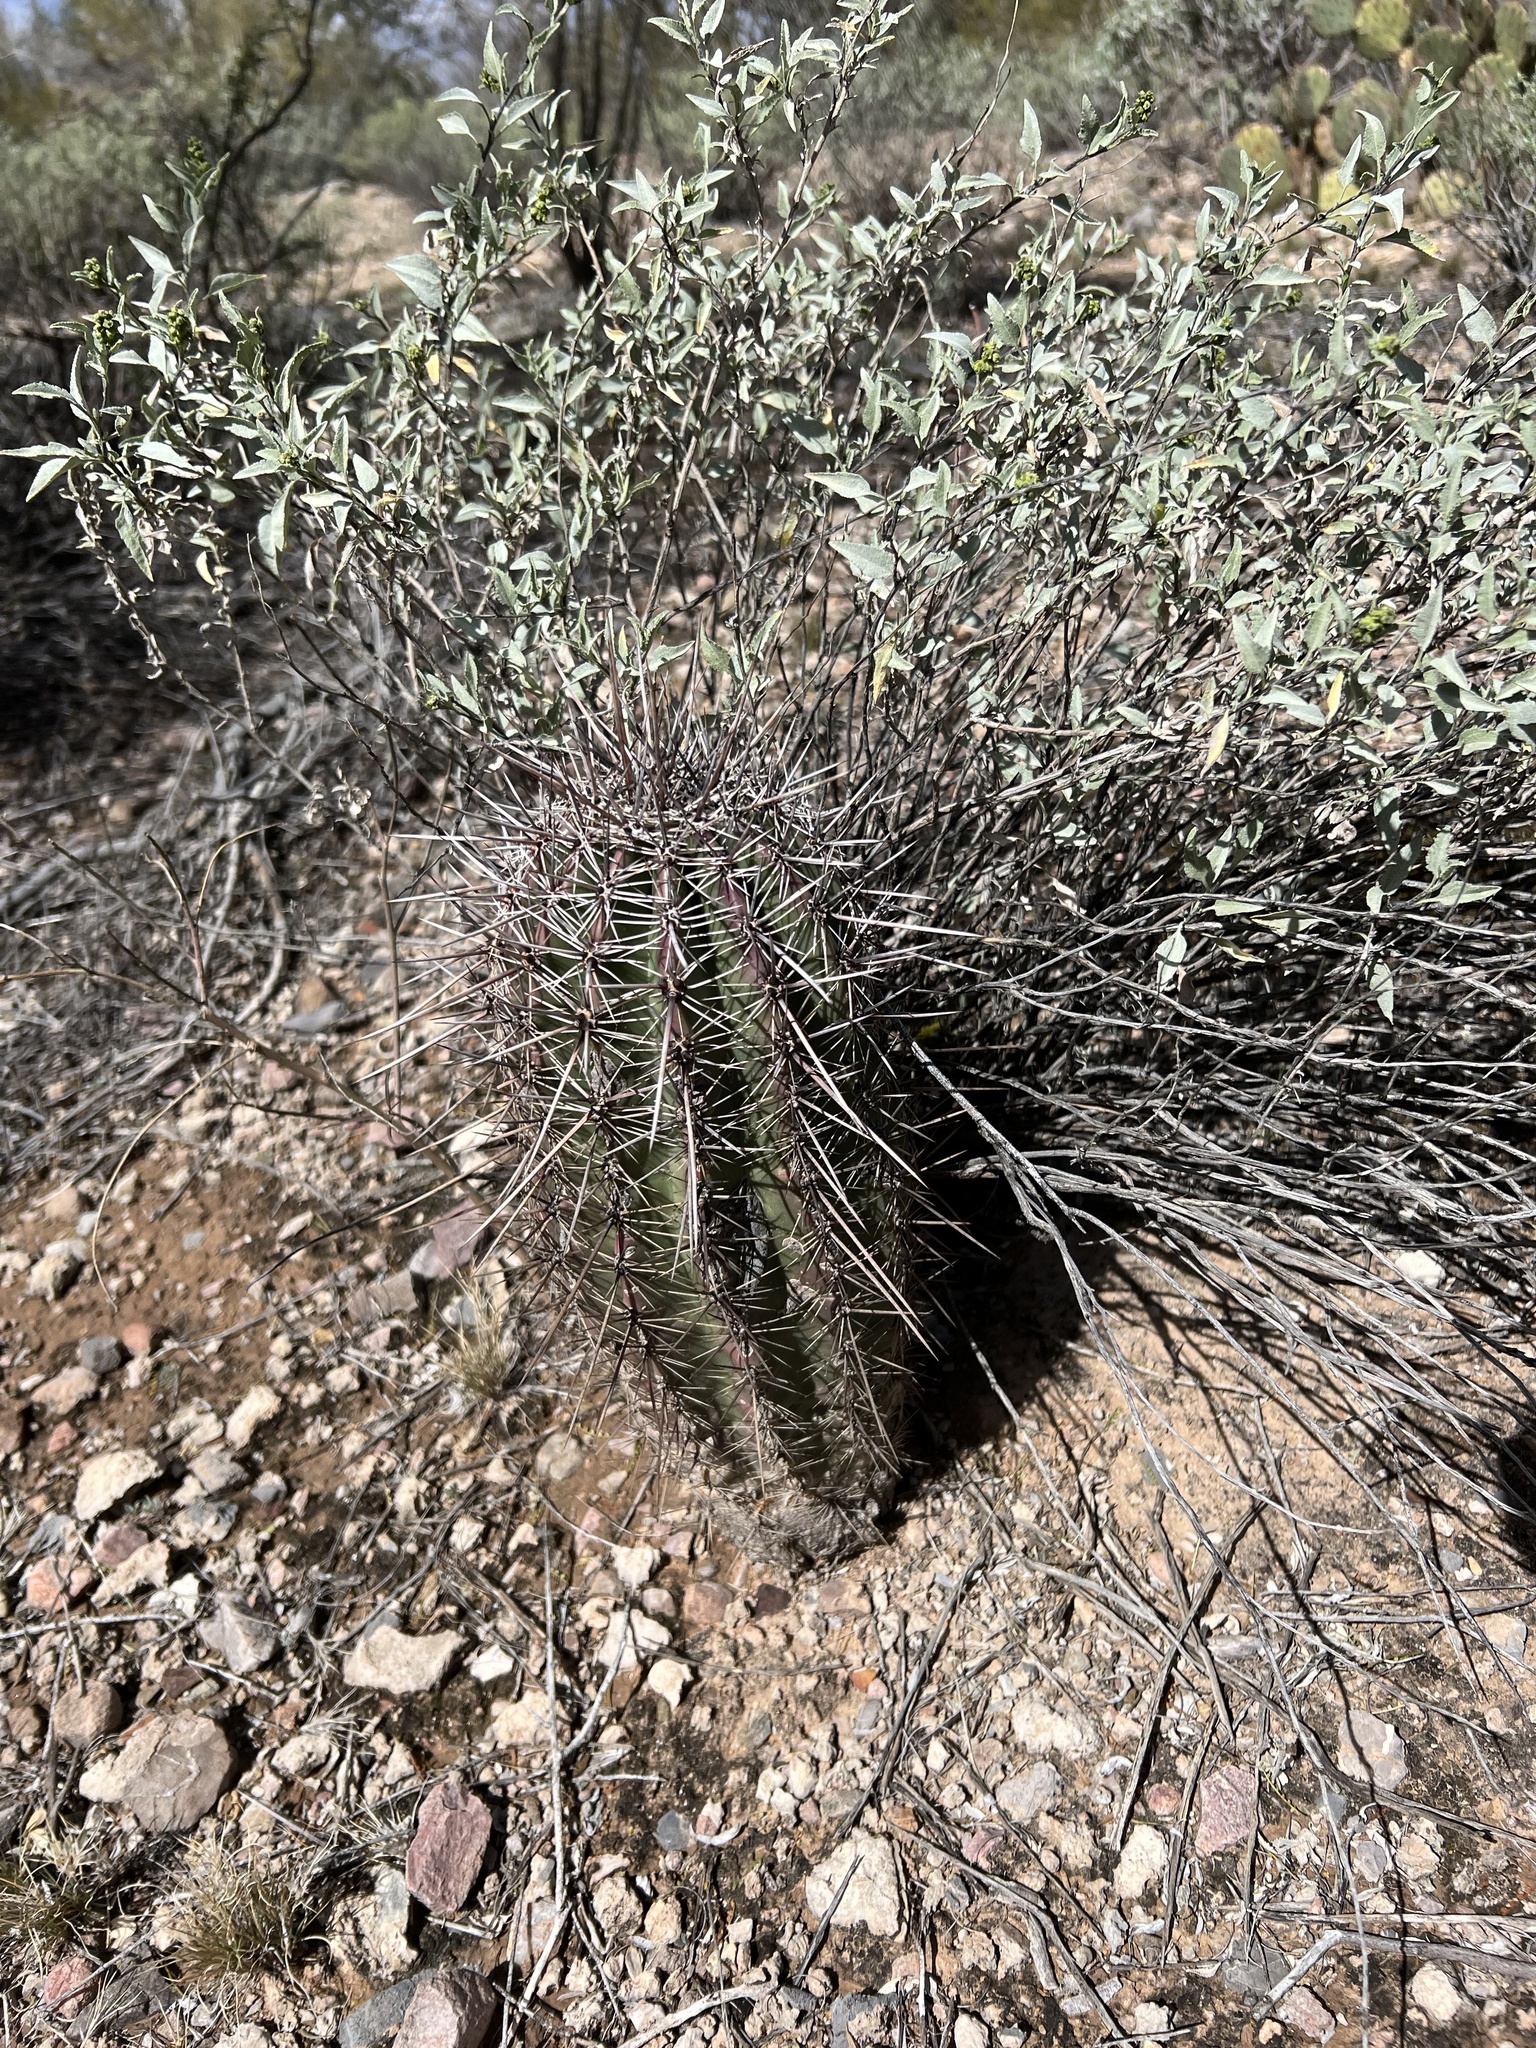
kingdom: Plantae
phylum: Tracheophyta
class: Magnoliopsida
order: Caryophyllales
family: Cactaceae
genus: Carnegiea
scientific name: Carnegiea gigantea
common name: Saguaro
